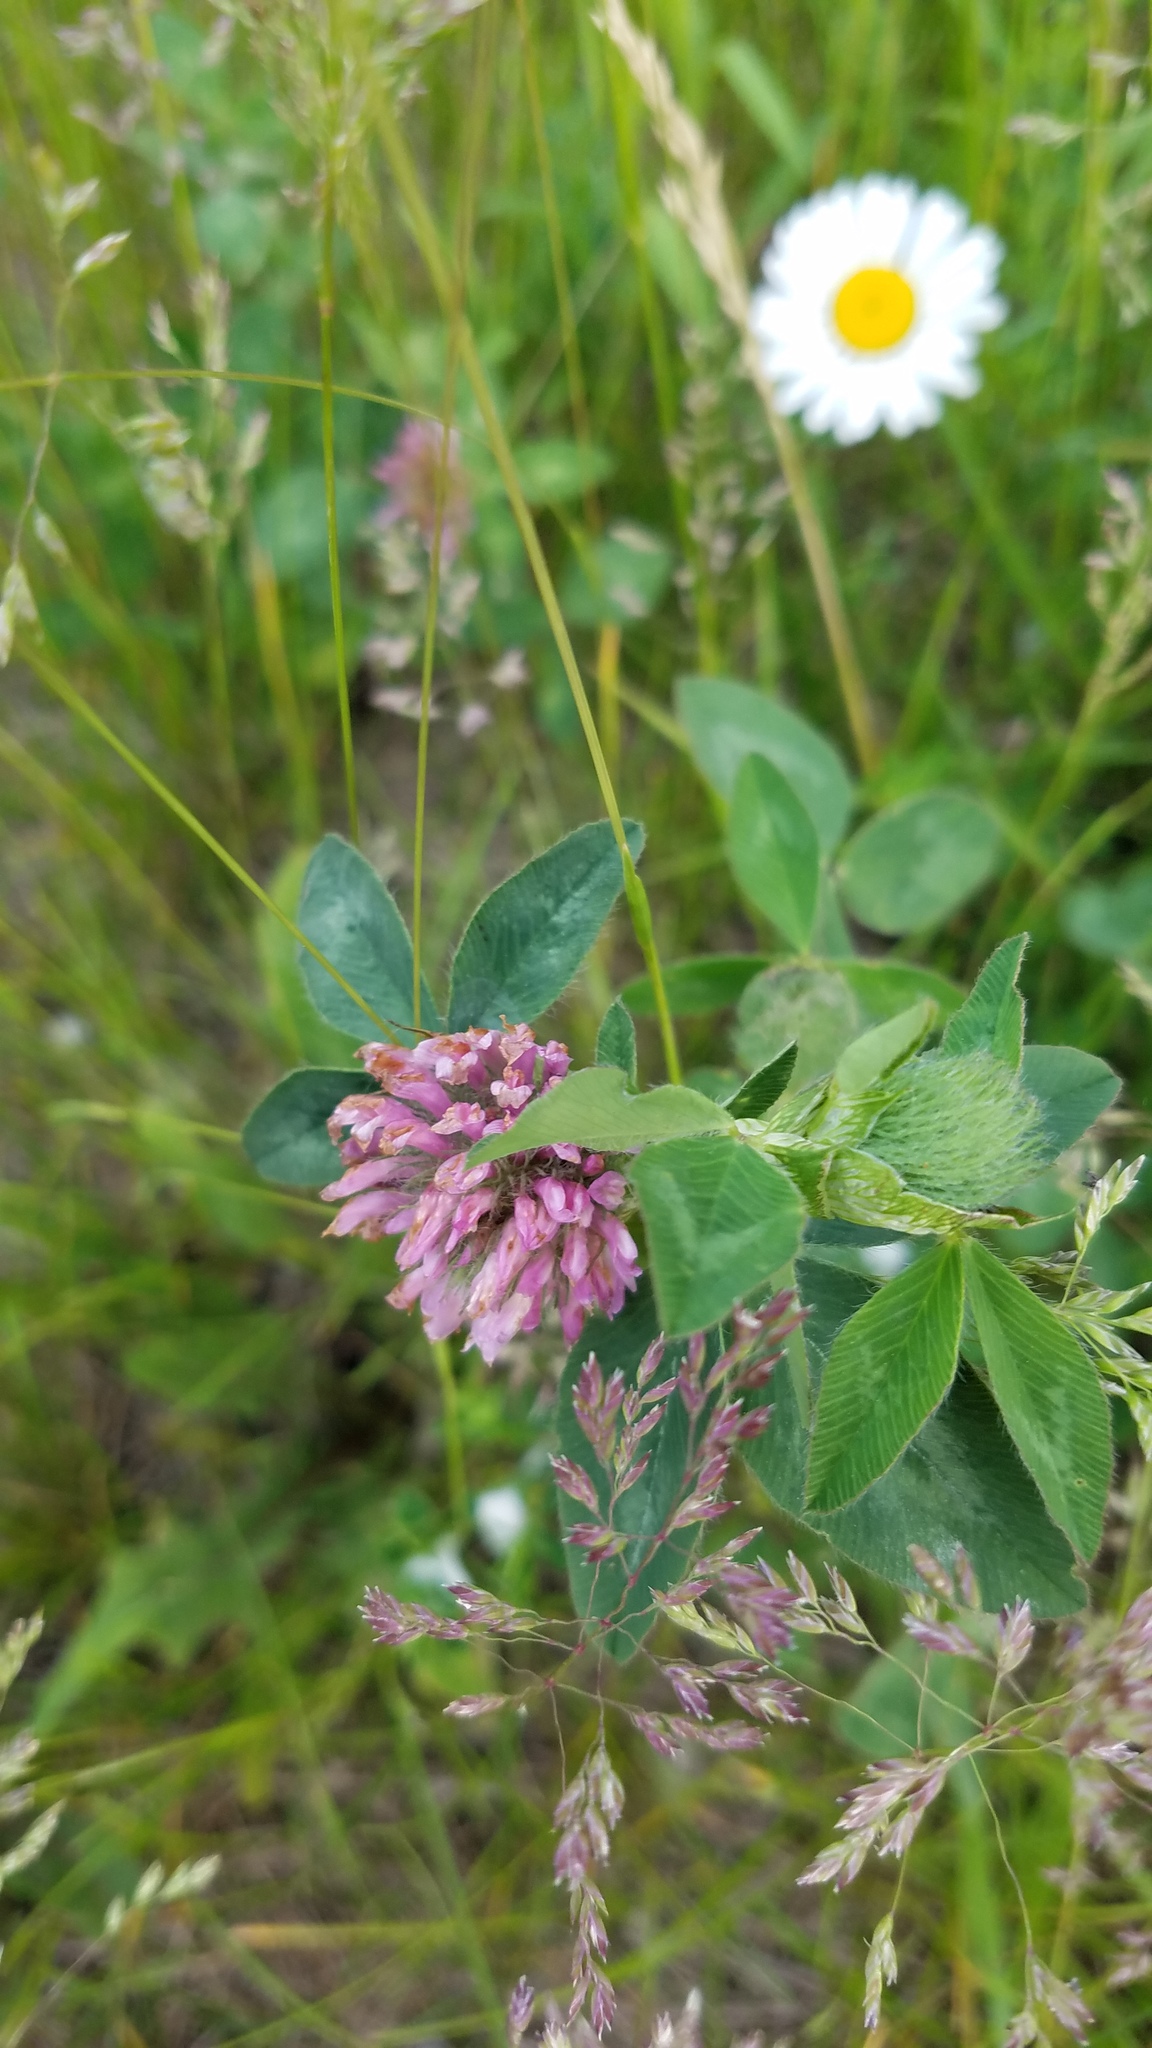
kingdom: Plantae
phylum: Tracheophyta
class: Magnoliopsida
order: Fabales
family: Fabaceae
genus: Trifolium
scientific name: Trifolium pratense
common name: Red clover
